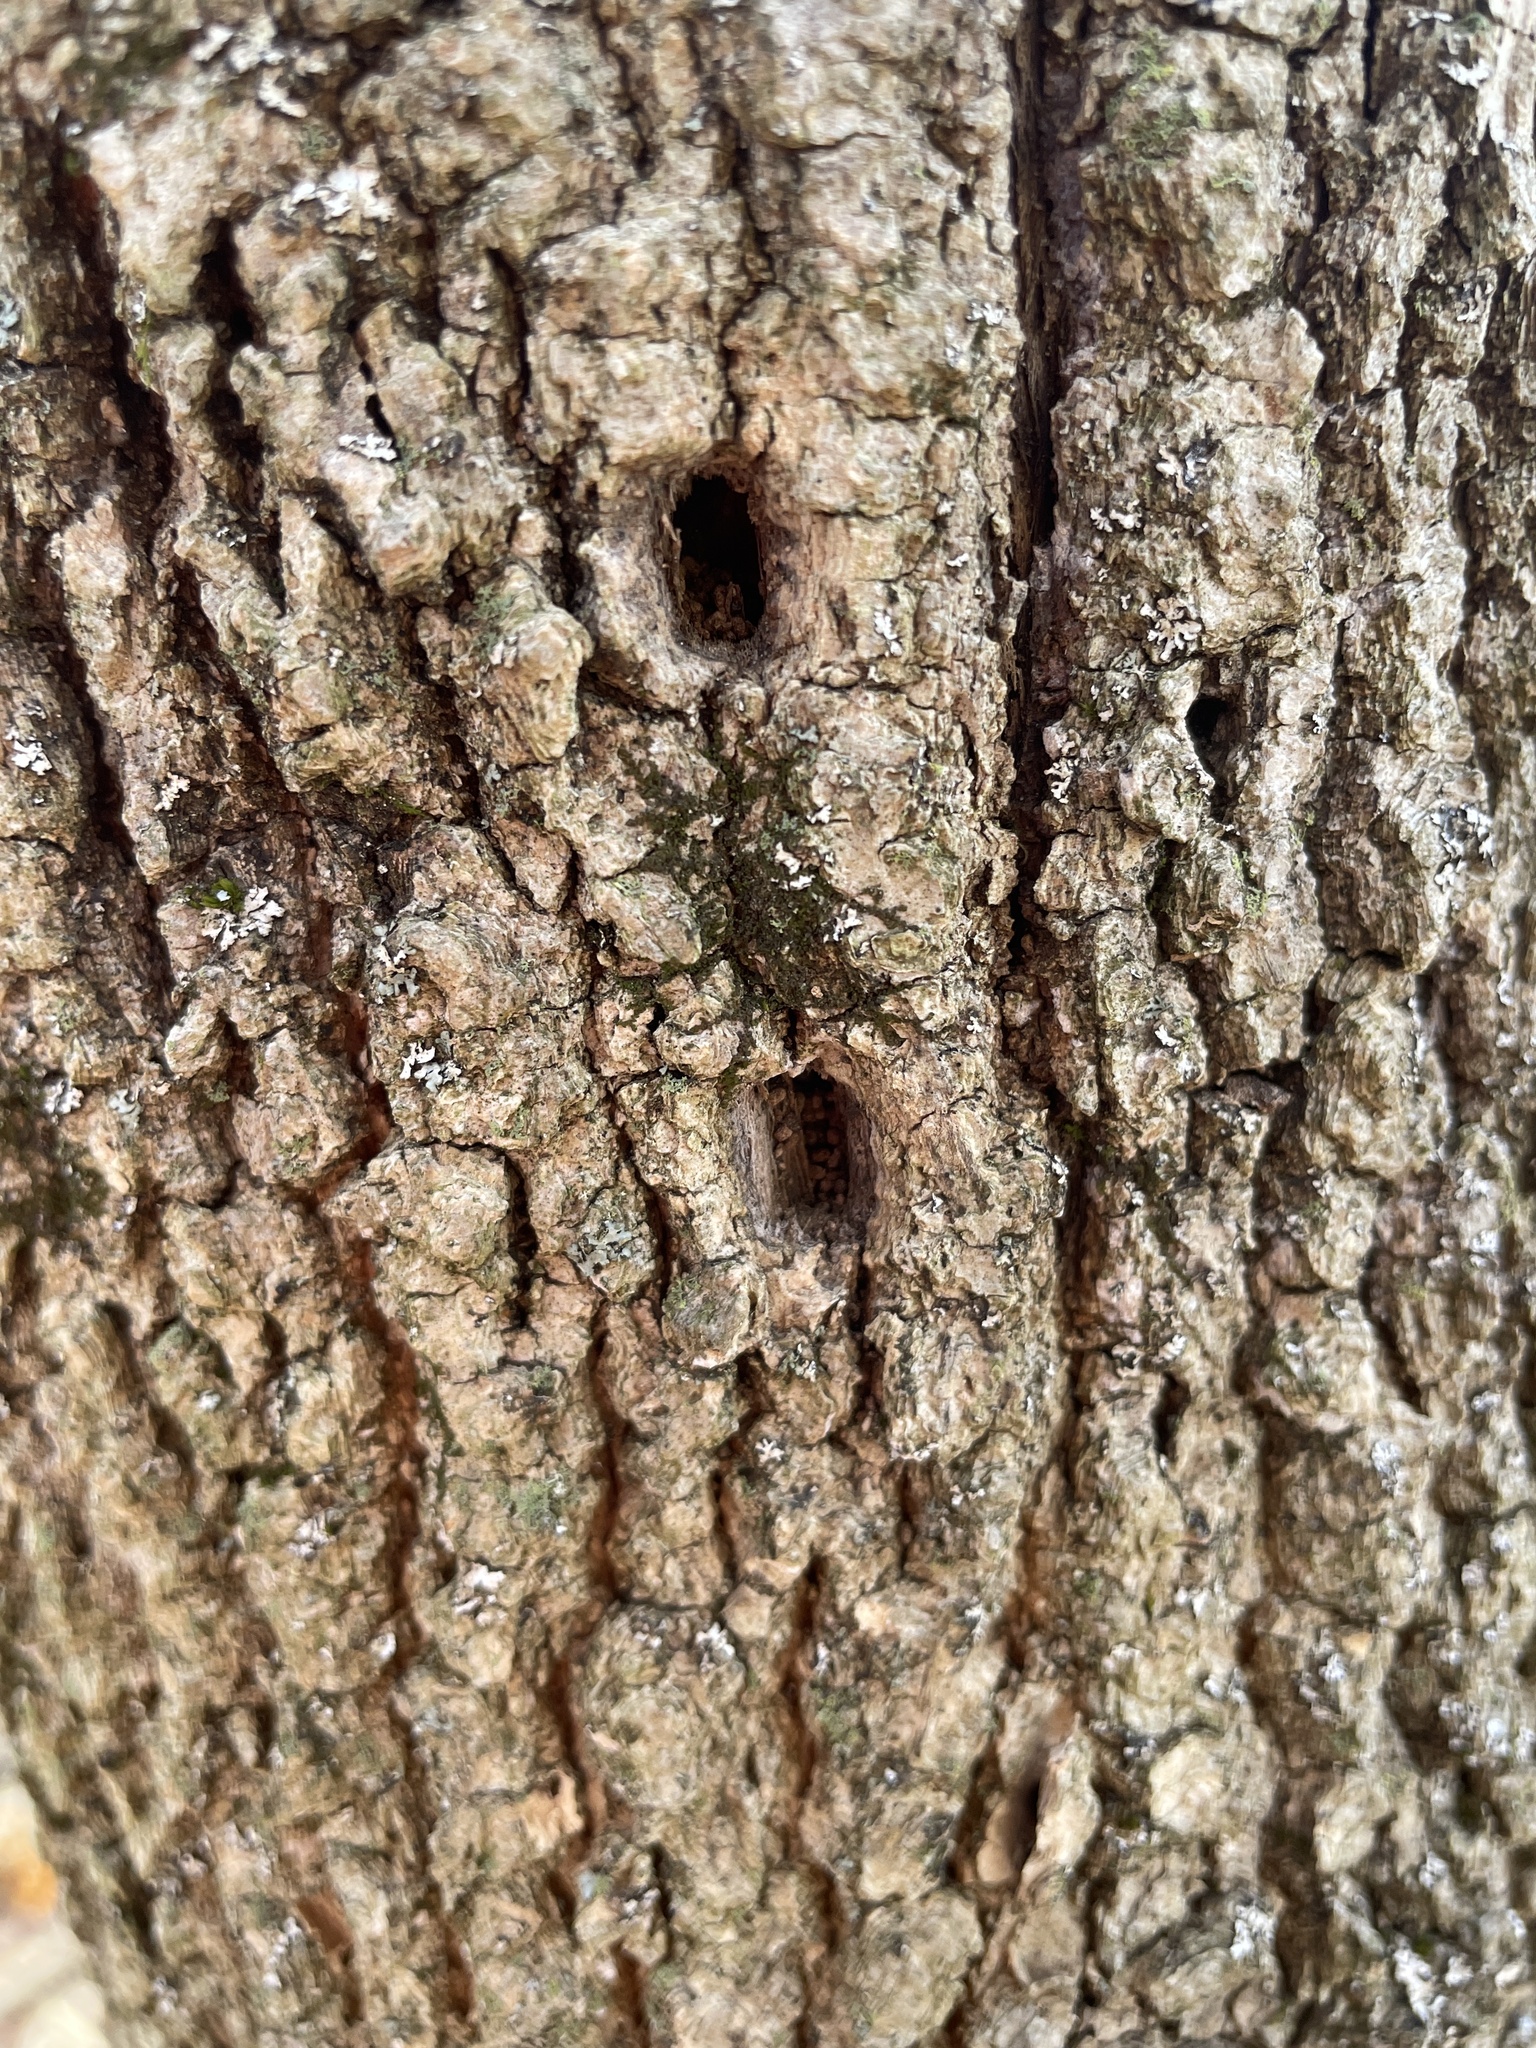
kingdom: Animalia
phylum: Arthropoda
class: Insecta
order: Coleoptera
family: Buprestidae
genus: Agrilus
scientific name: Agrilus planipennis
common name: Emerald ash borer
